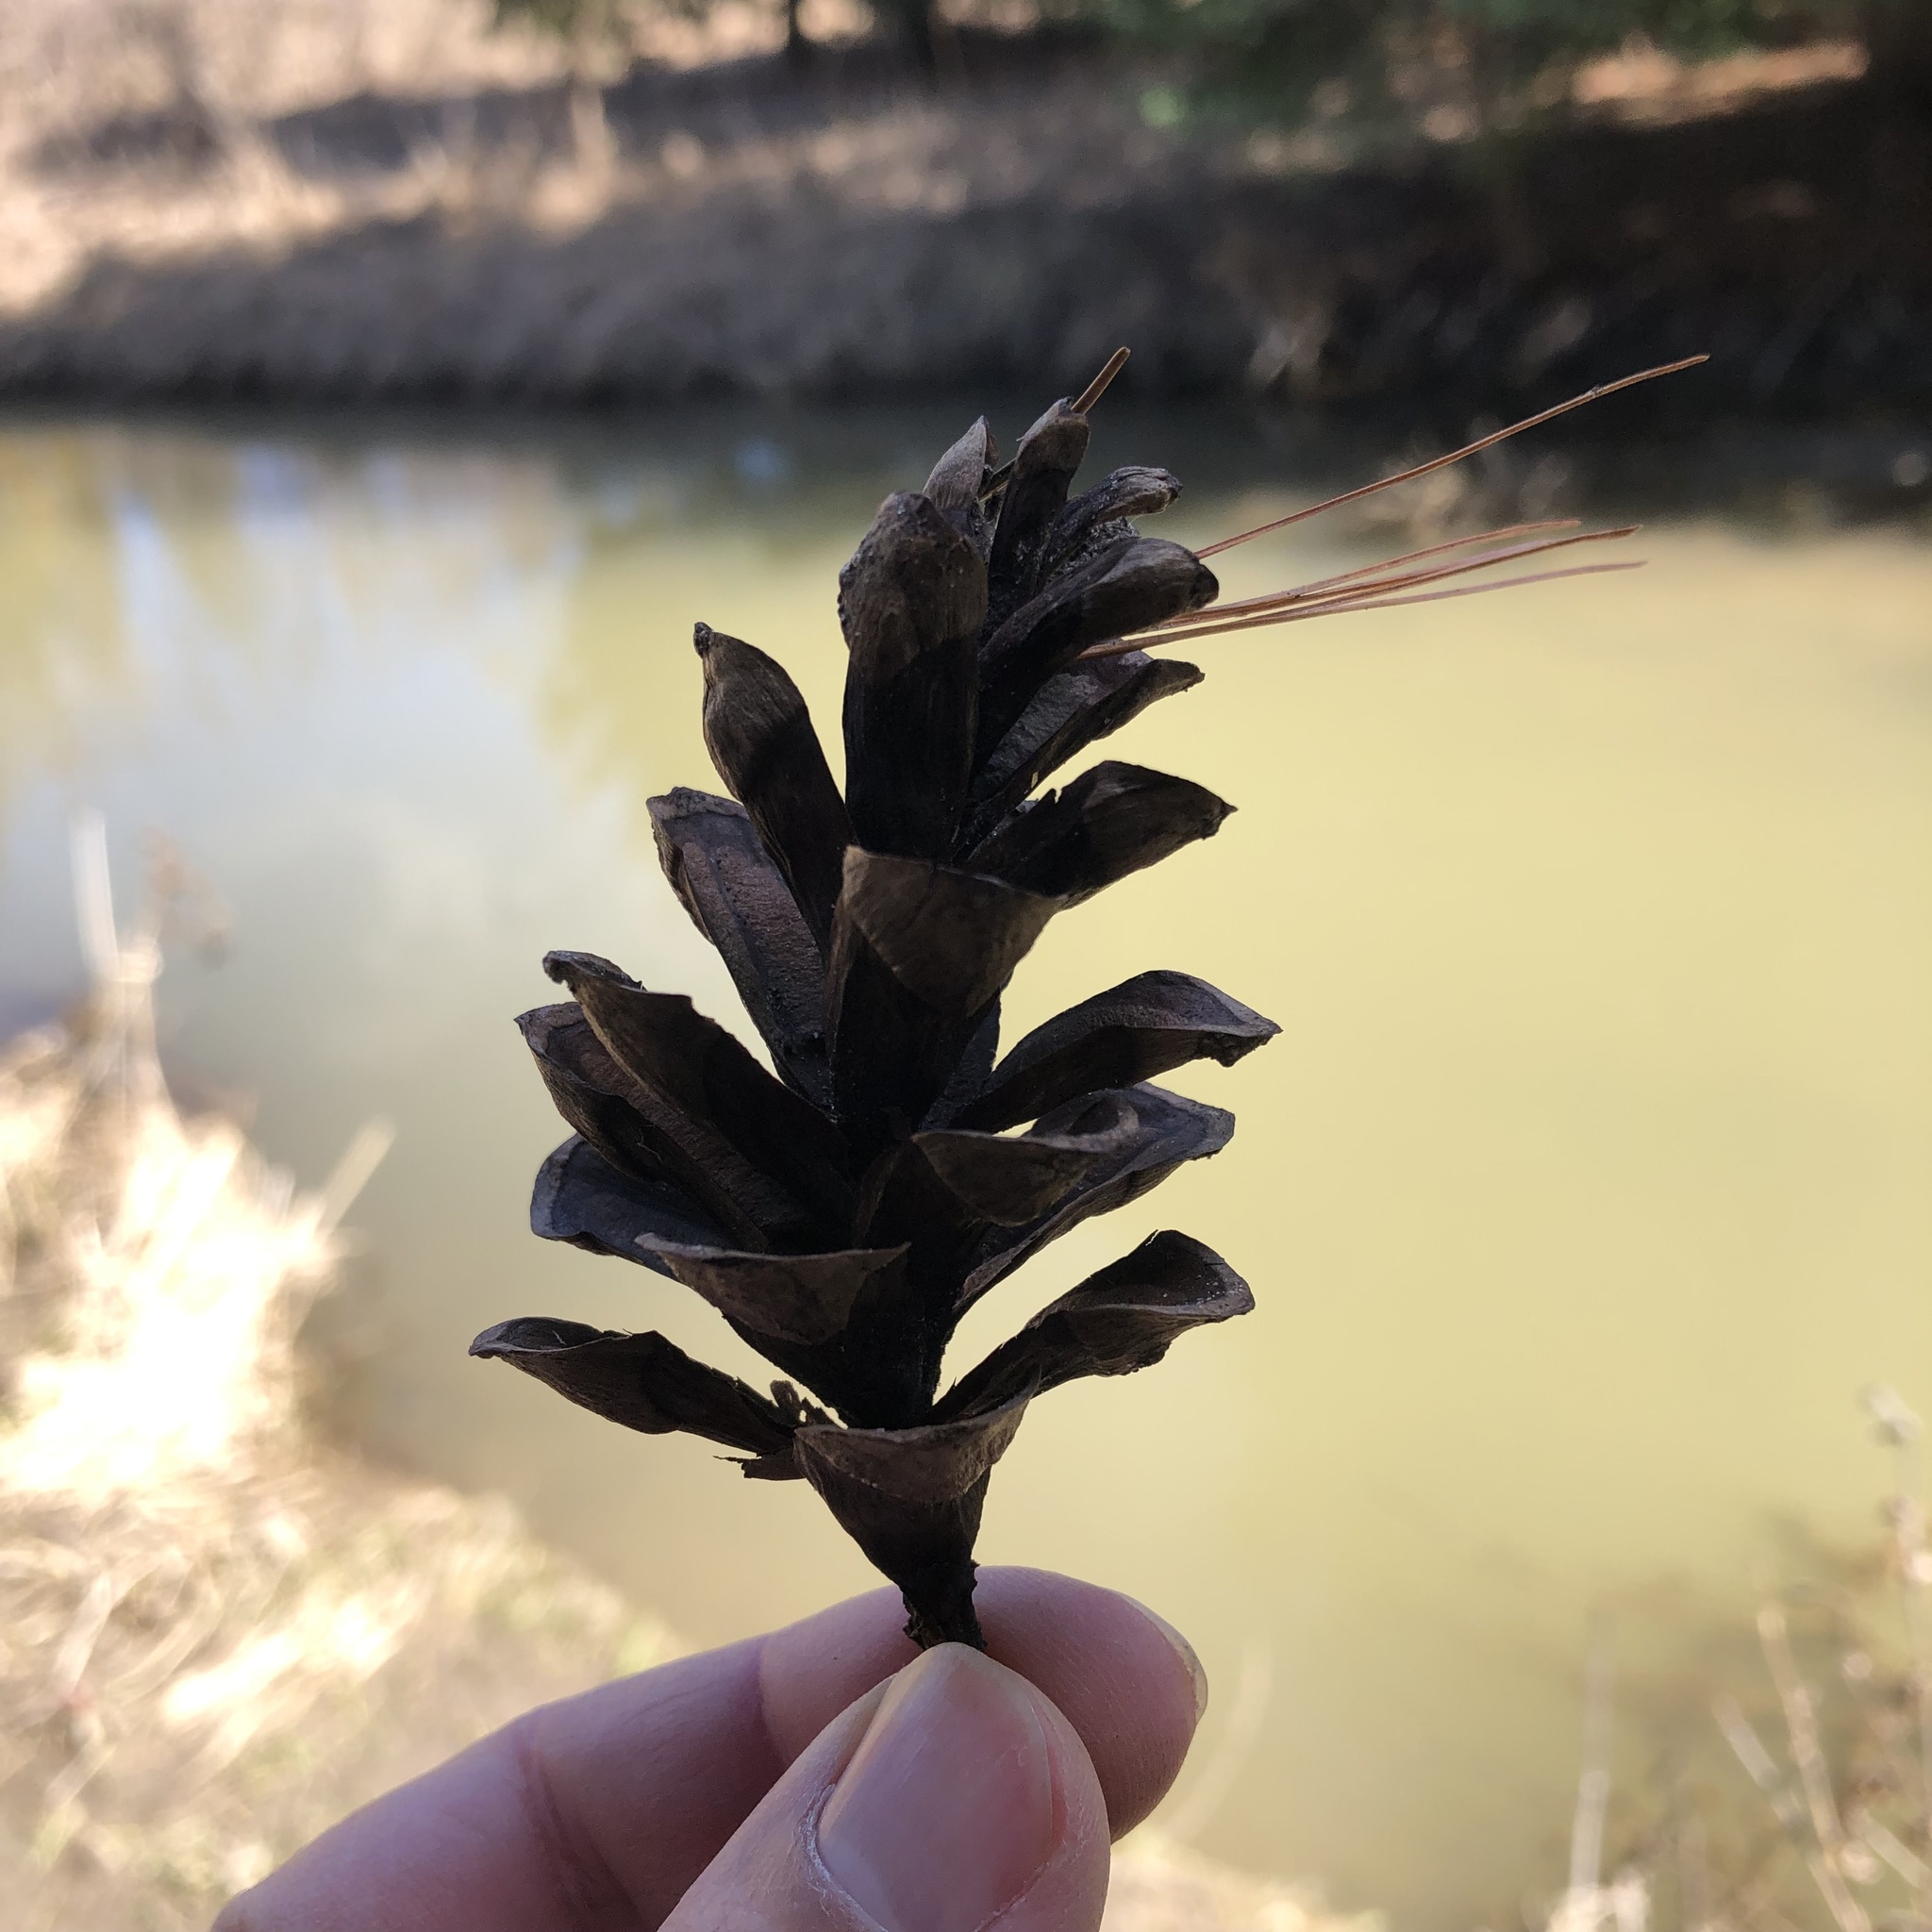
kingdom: Plantae
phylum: Tracheophyta
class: Pinopsida
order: Pinales
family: Pinaceae
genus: Pinus
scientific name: Pinus strobus
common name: Weymouth pine
